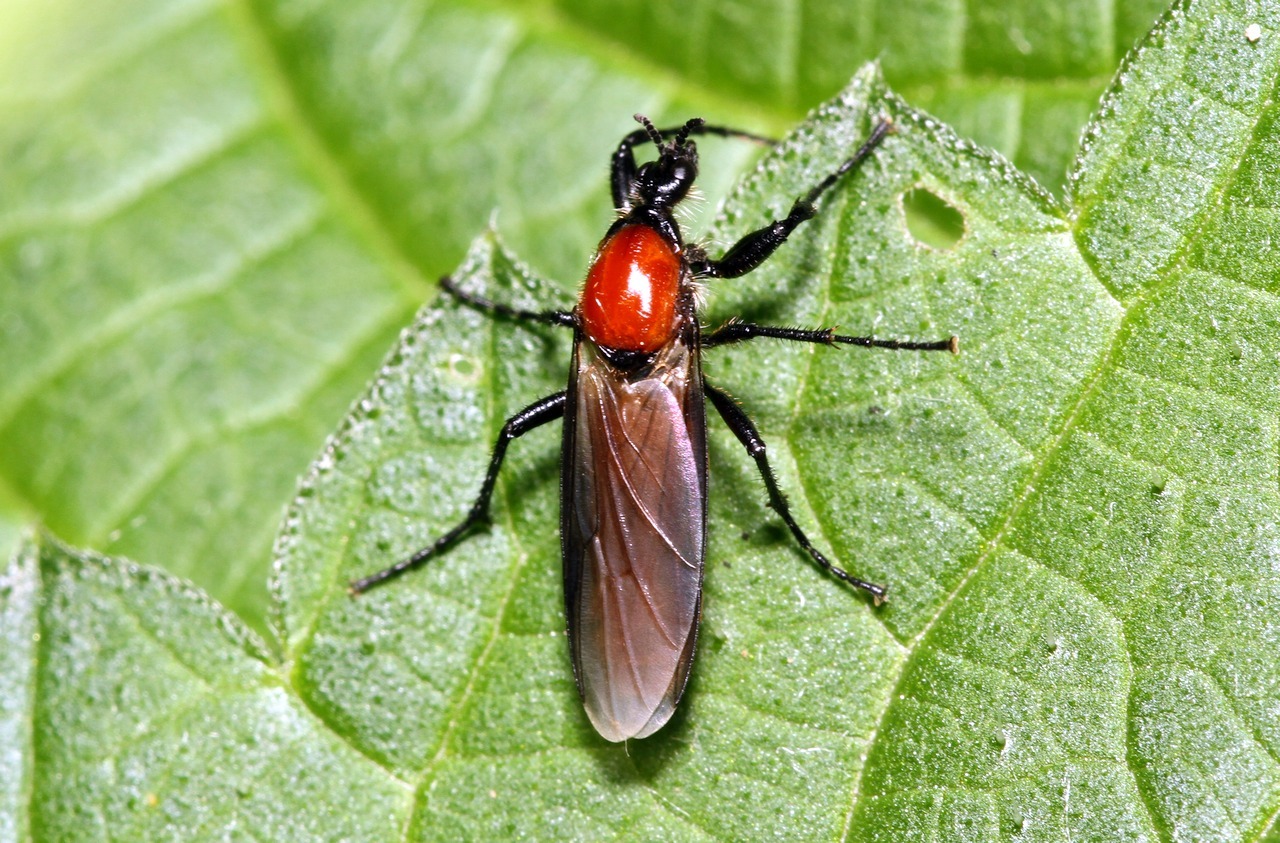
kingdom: Animalia
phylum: Arthropoda
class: Insecta
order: Diptera
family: Bibionidae
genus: Bibio
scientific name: Bibio hortulanus
